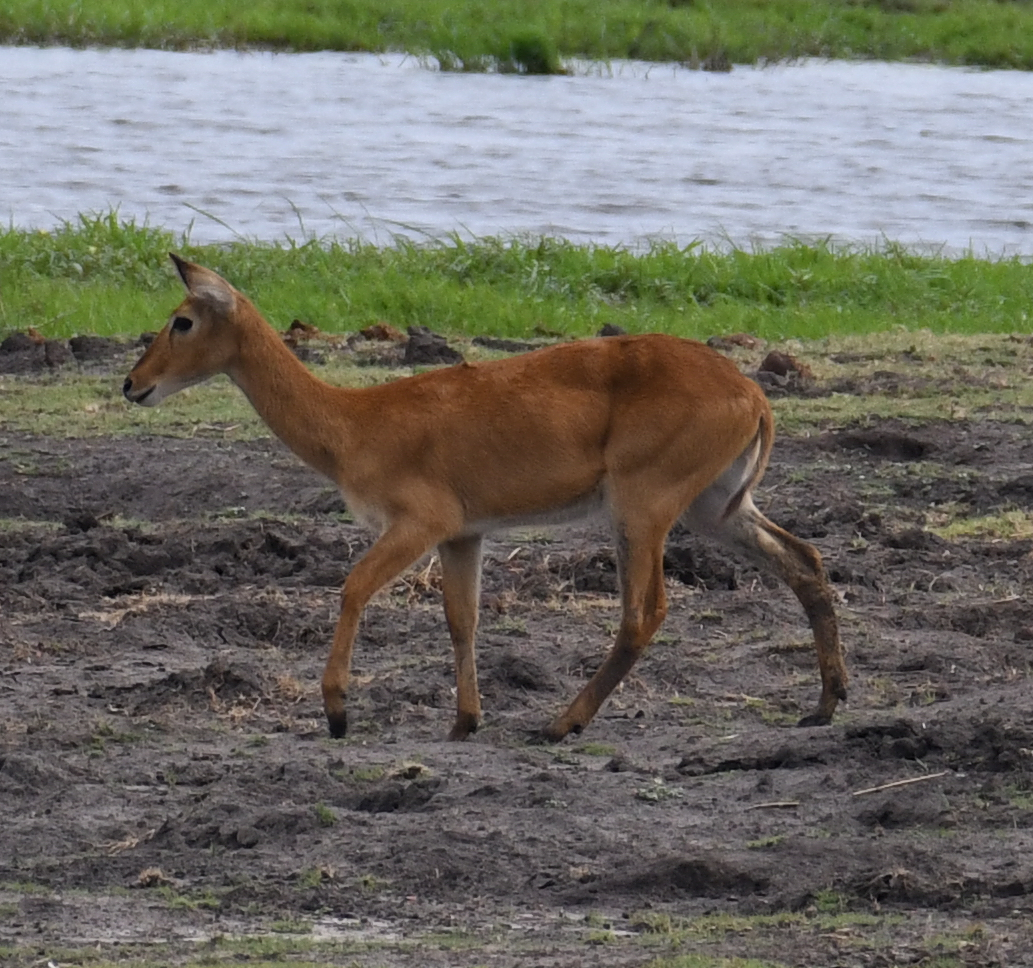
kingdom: Animalia
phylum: Chordata
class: Mammalia
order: Artiodactyla
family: Bovidae
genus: Kobus
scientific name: Kobus vardonii
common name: Puku
